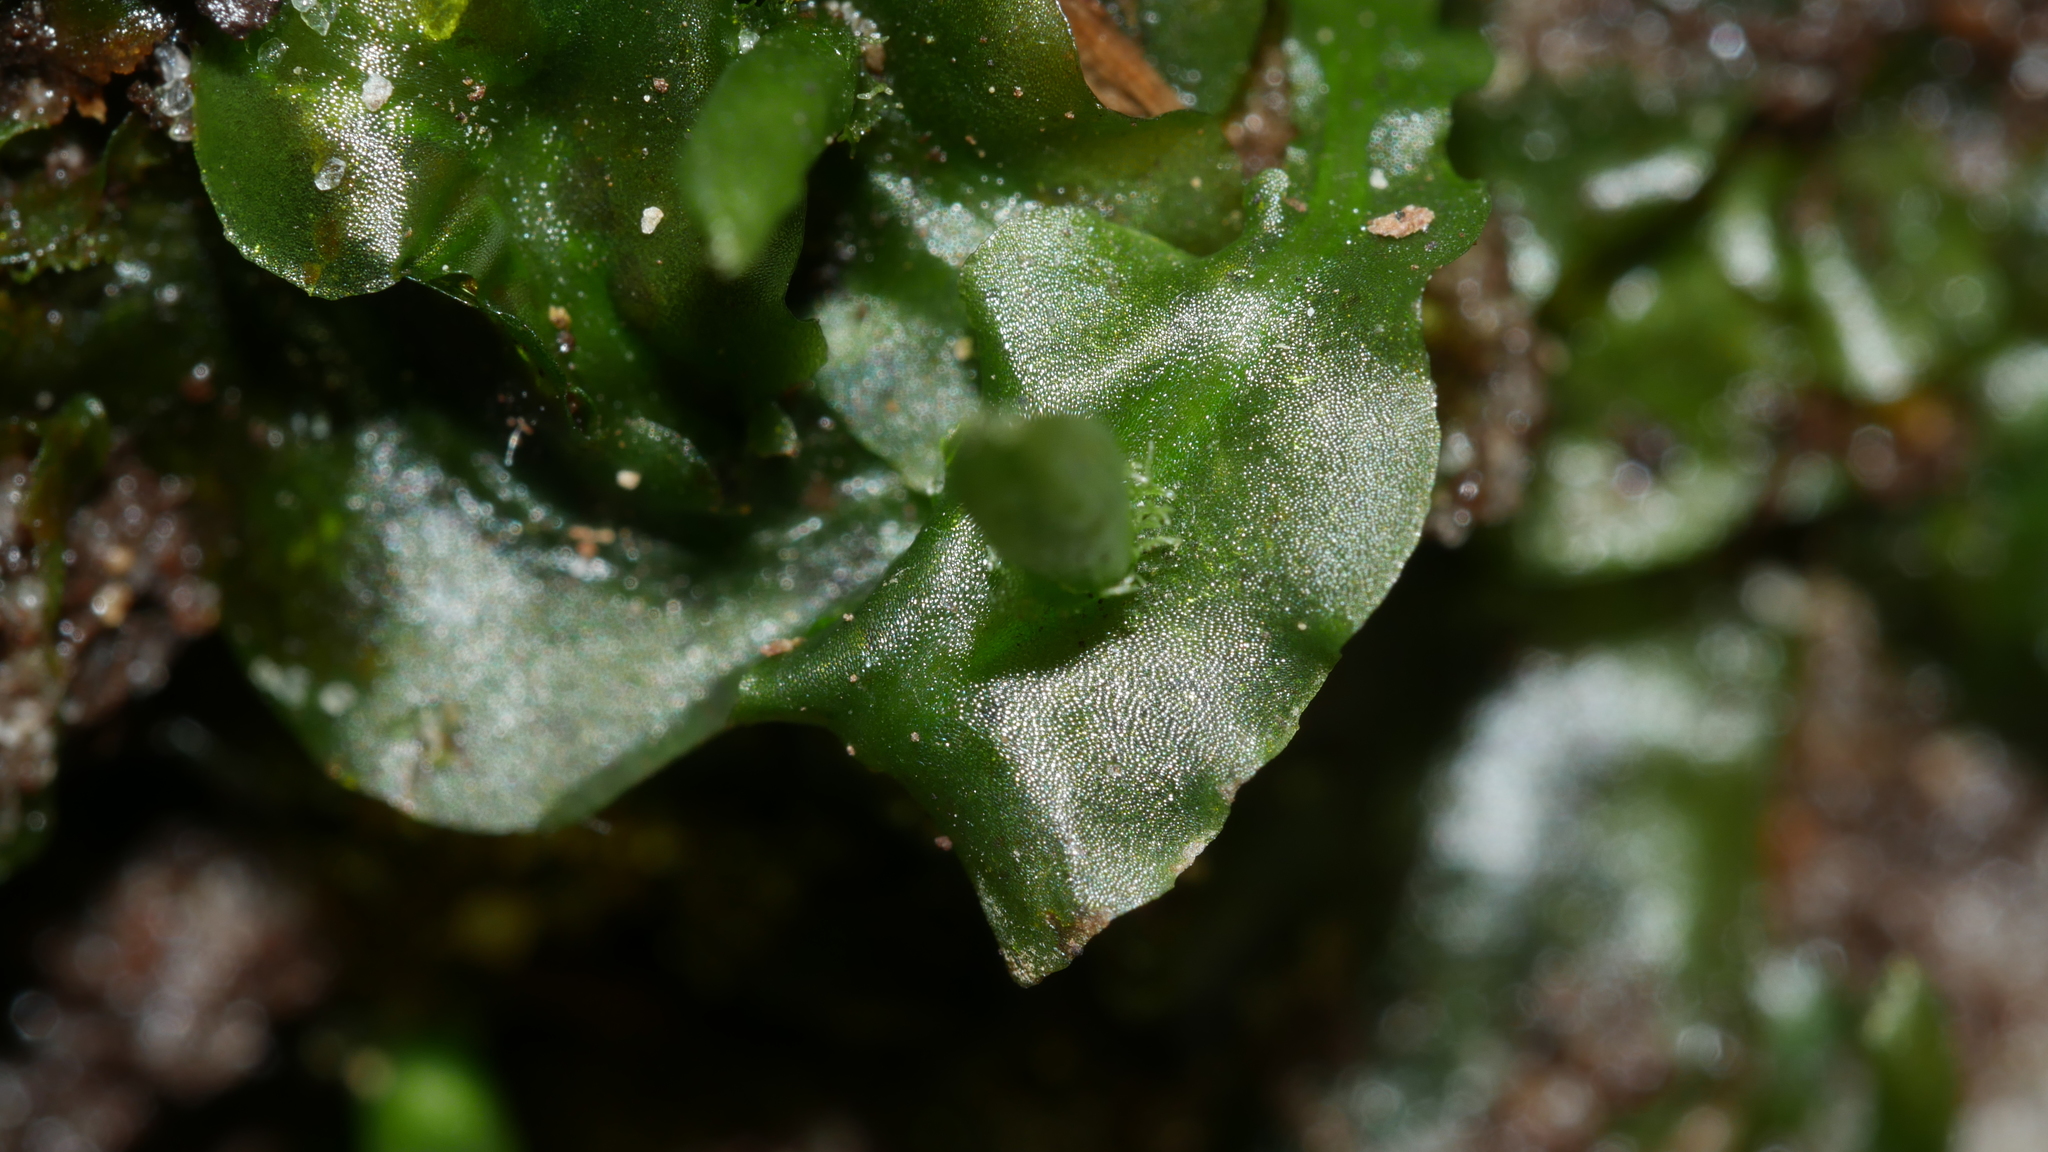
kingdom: Plantae
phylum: Marchantiophyta
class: Jungermanniopsida
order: Pallaviciniales
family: Pallaviciniaceae
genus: Pallavicinia
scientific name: Pallavicinia lyellii
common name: Veilwort
